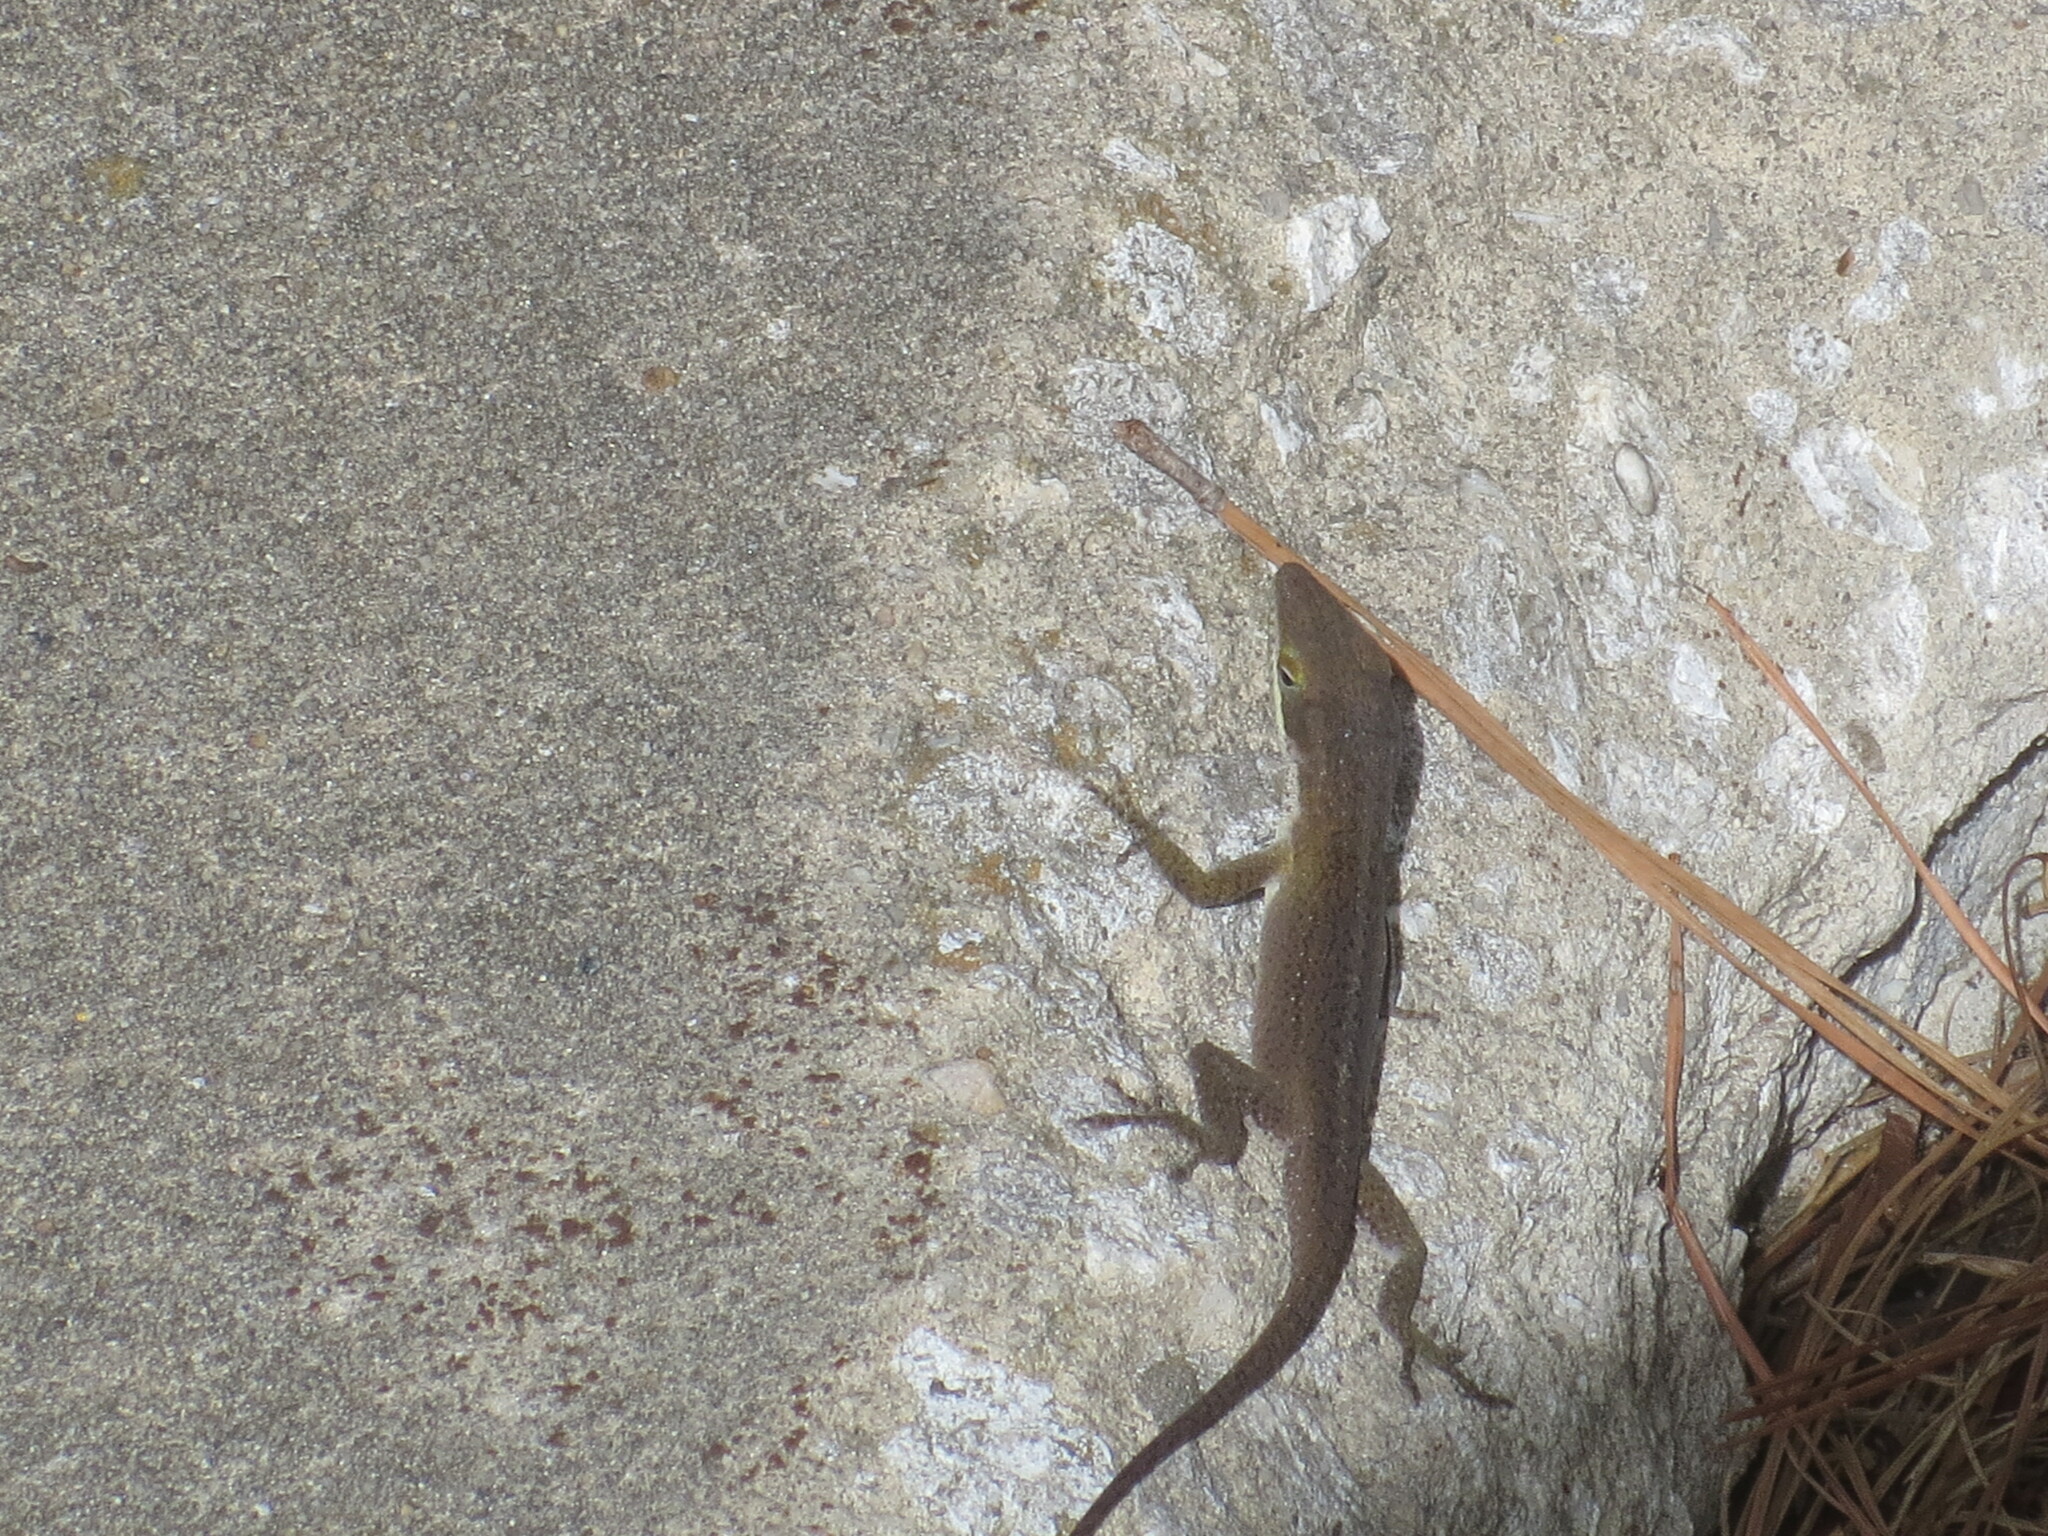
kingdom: Animalia
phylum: Chordata
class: Squamata
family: Dactyloidae
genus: Anolis
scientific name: Anolis carolinensis
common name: Green anole
